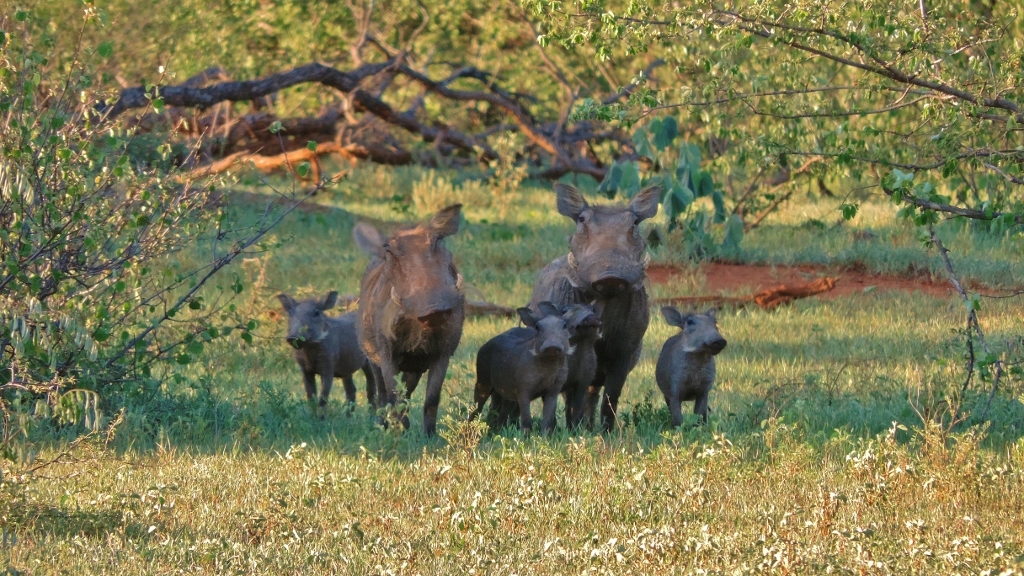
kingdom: Animalia
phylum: Chordata
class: Mammalia
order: Artiodactyla
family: Suidae
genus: Phacochoerus
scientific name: Phacochoerus africanus
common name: Common warthog
